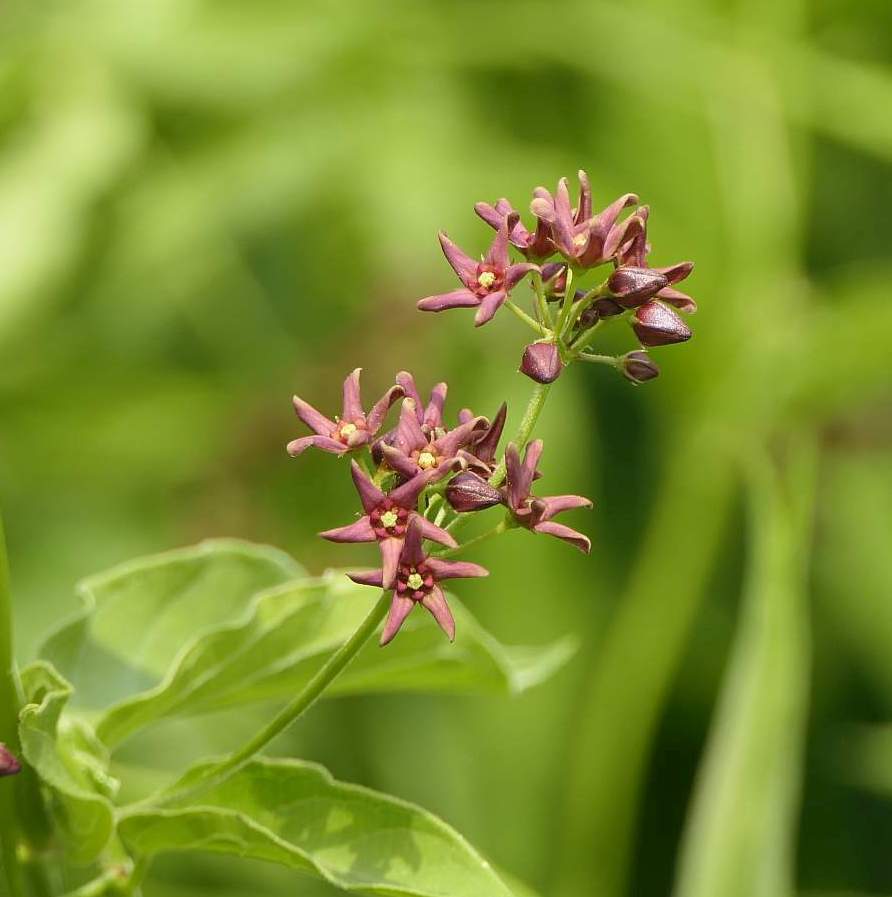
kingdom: Plantae
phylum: Tracheophyta
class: Magnoliopsida
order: Gentianales
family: Apocynaceae
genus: Vincetoxicum
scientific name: Vincetoxicum rossicum
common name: Dog-strangling vine
